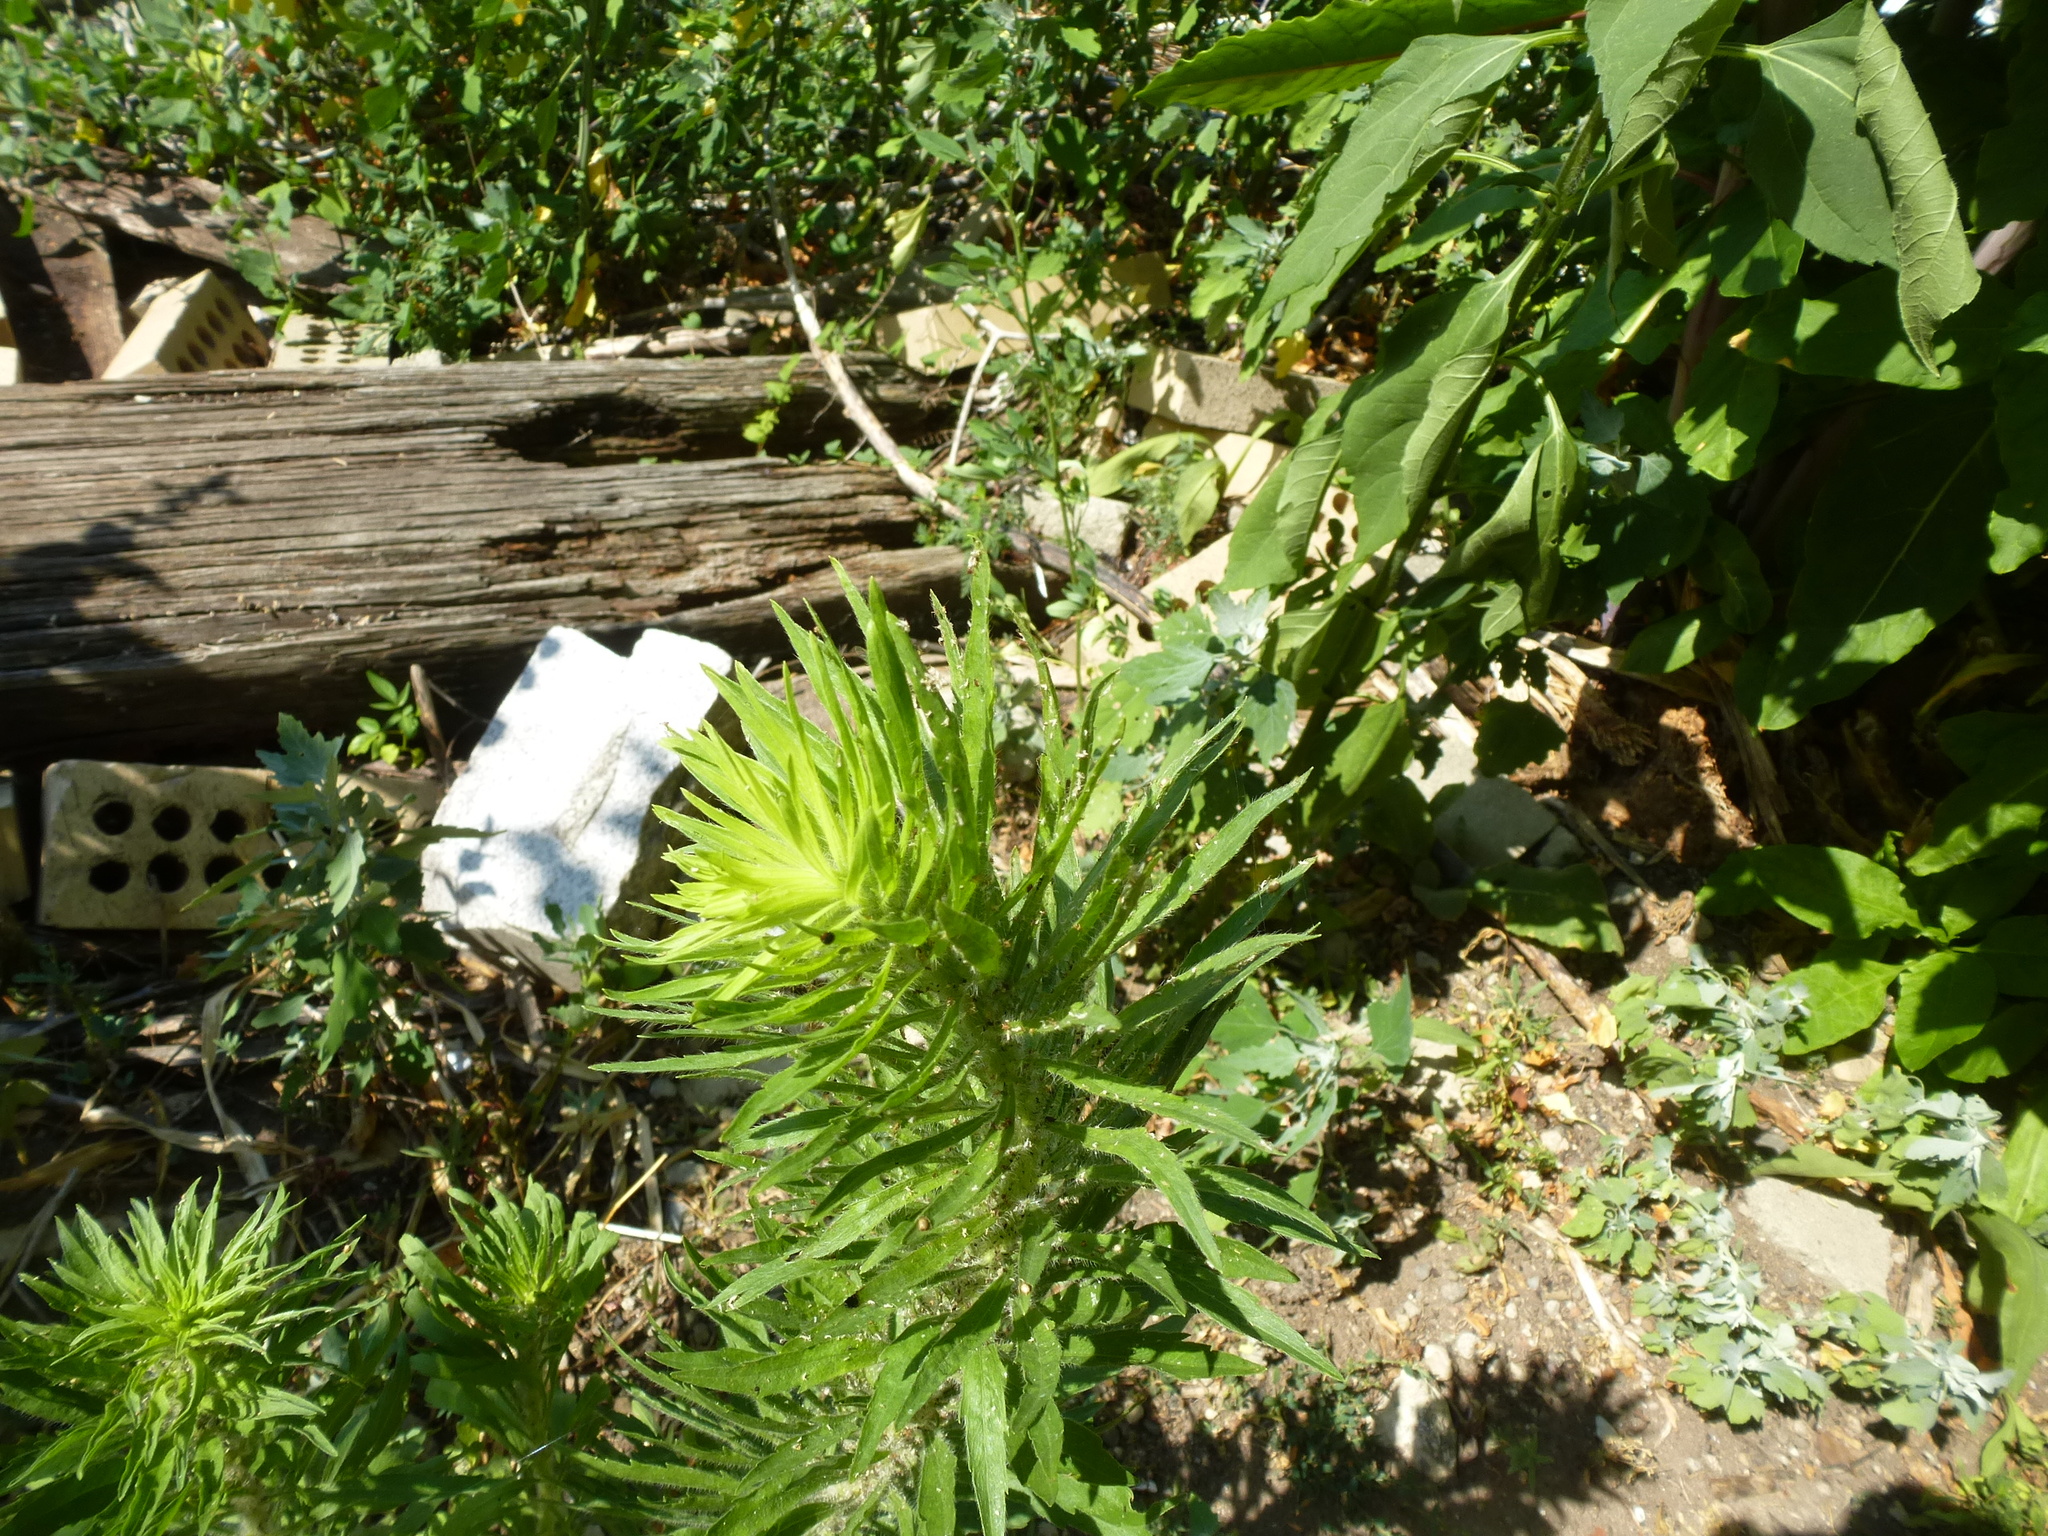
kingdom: Plantae
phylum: Tracheophyta
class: Magnoliopsida
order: Asterales
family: Asteraceae
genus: Erigeron
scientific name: Erigeron canadensis
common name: Canadian fleabane
